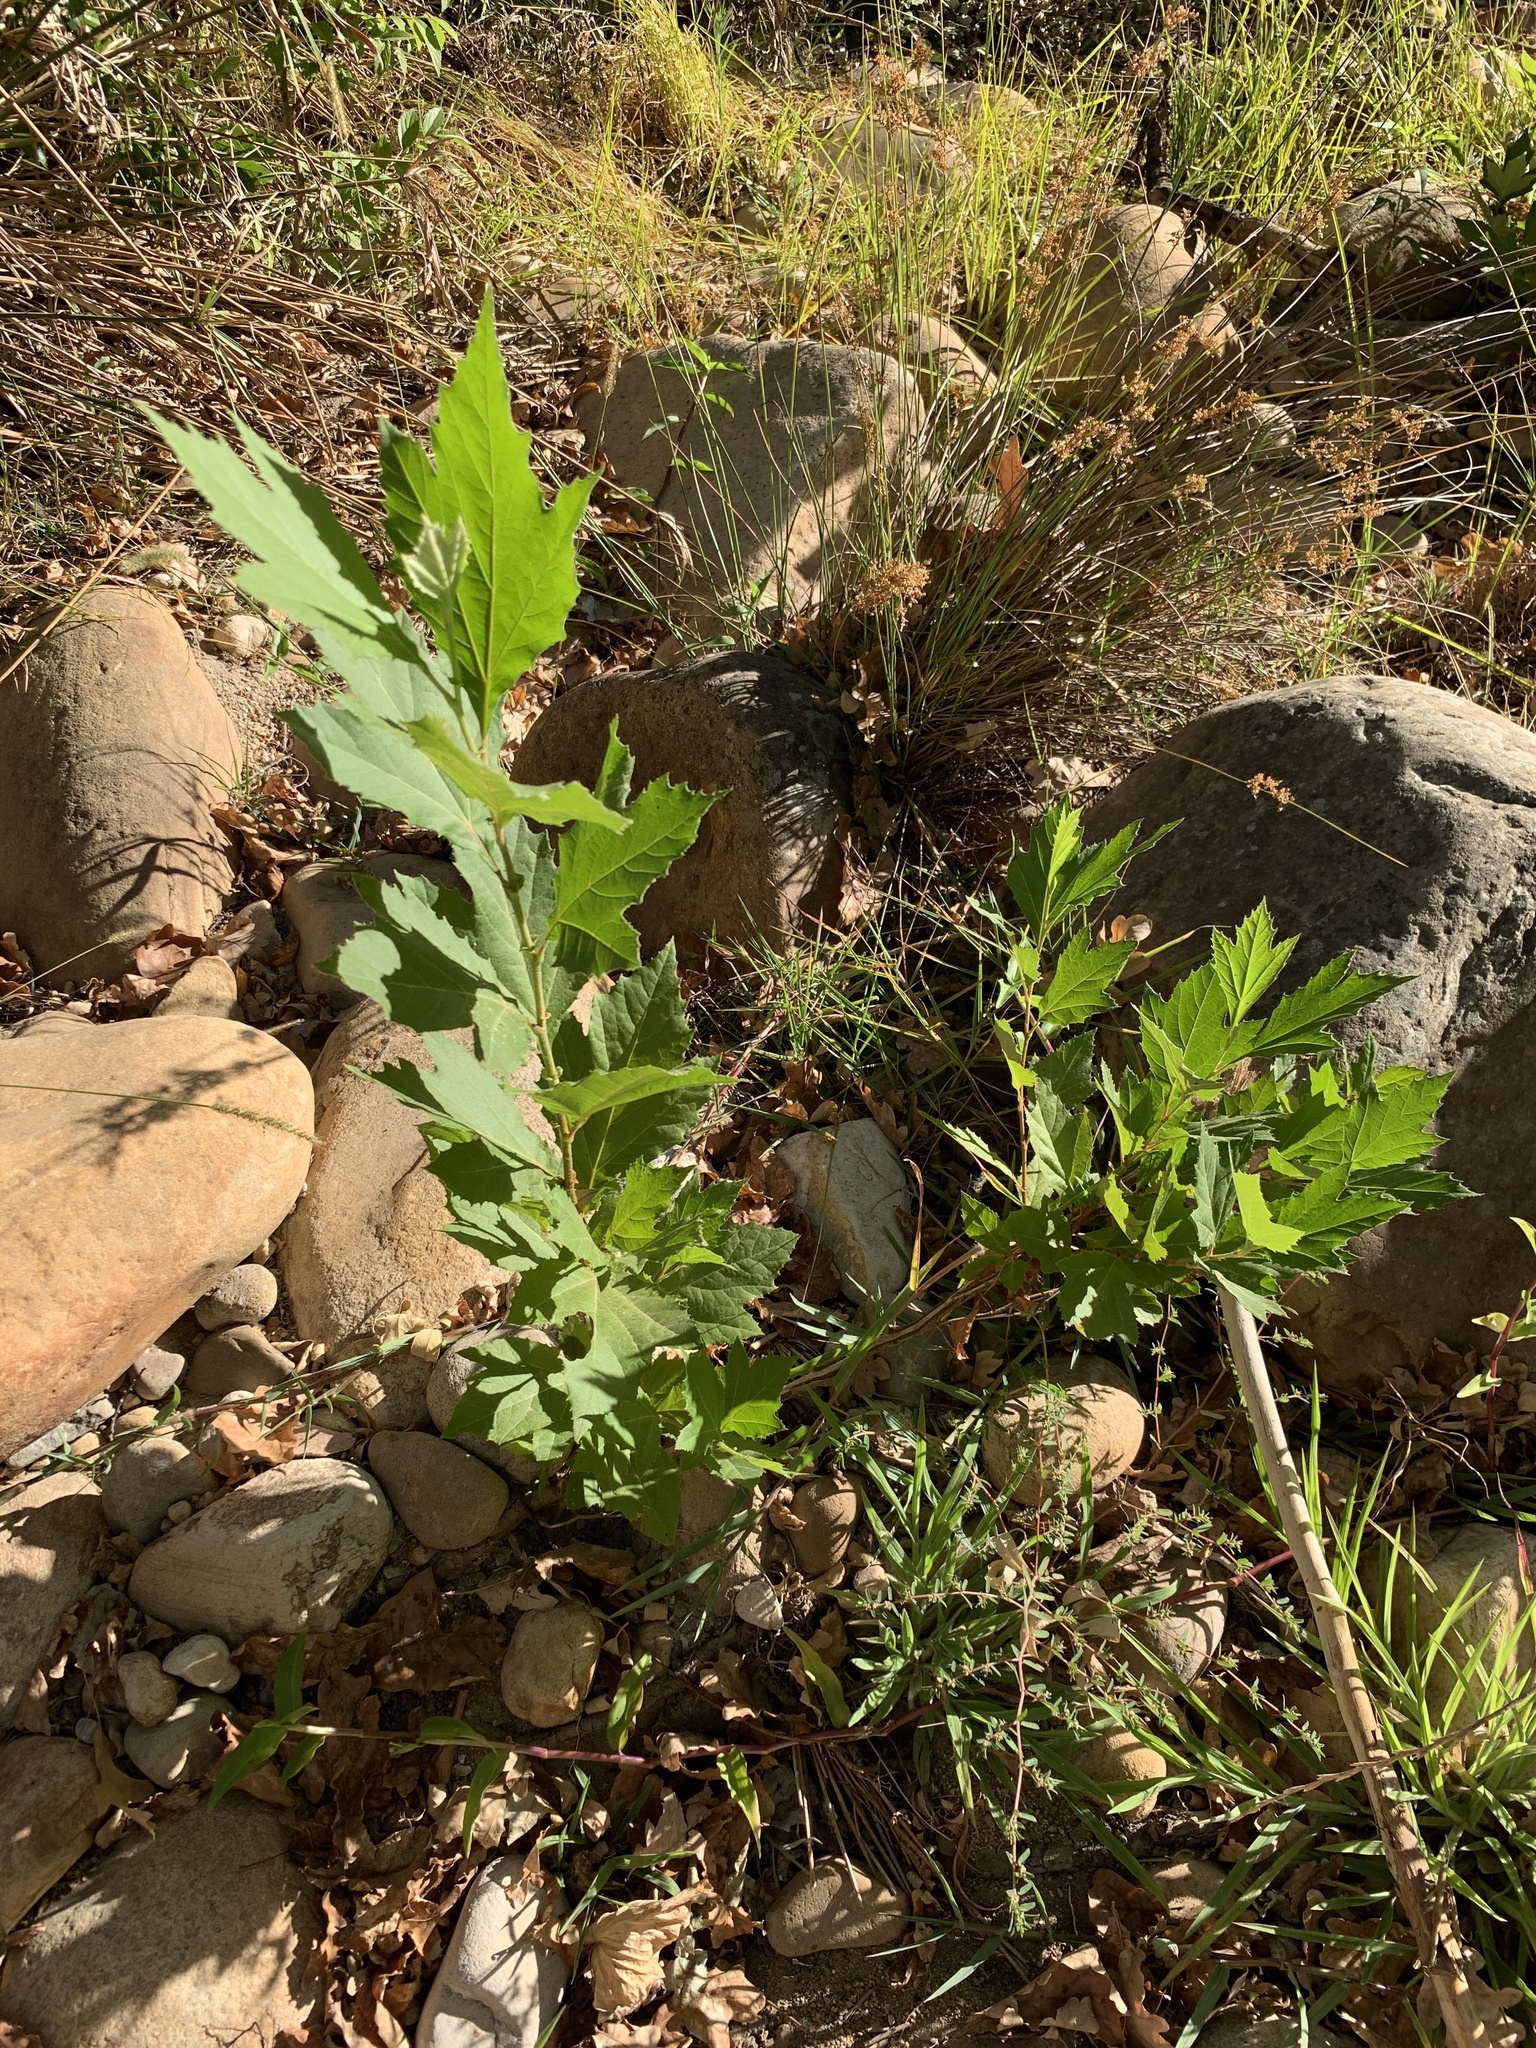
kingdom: Plantae
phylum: Tracheophyta
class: Magnoliopsida
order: Proteales
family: Platanaceae
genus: Platanus
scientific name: Platanus hispanica
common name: London plane
